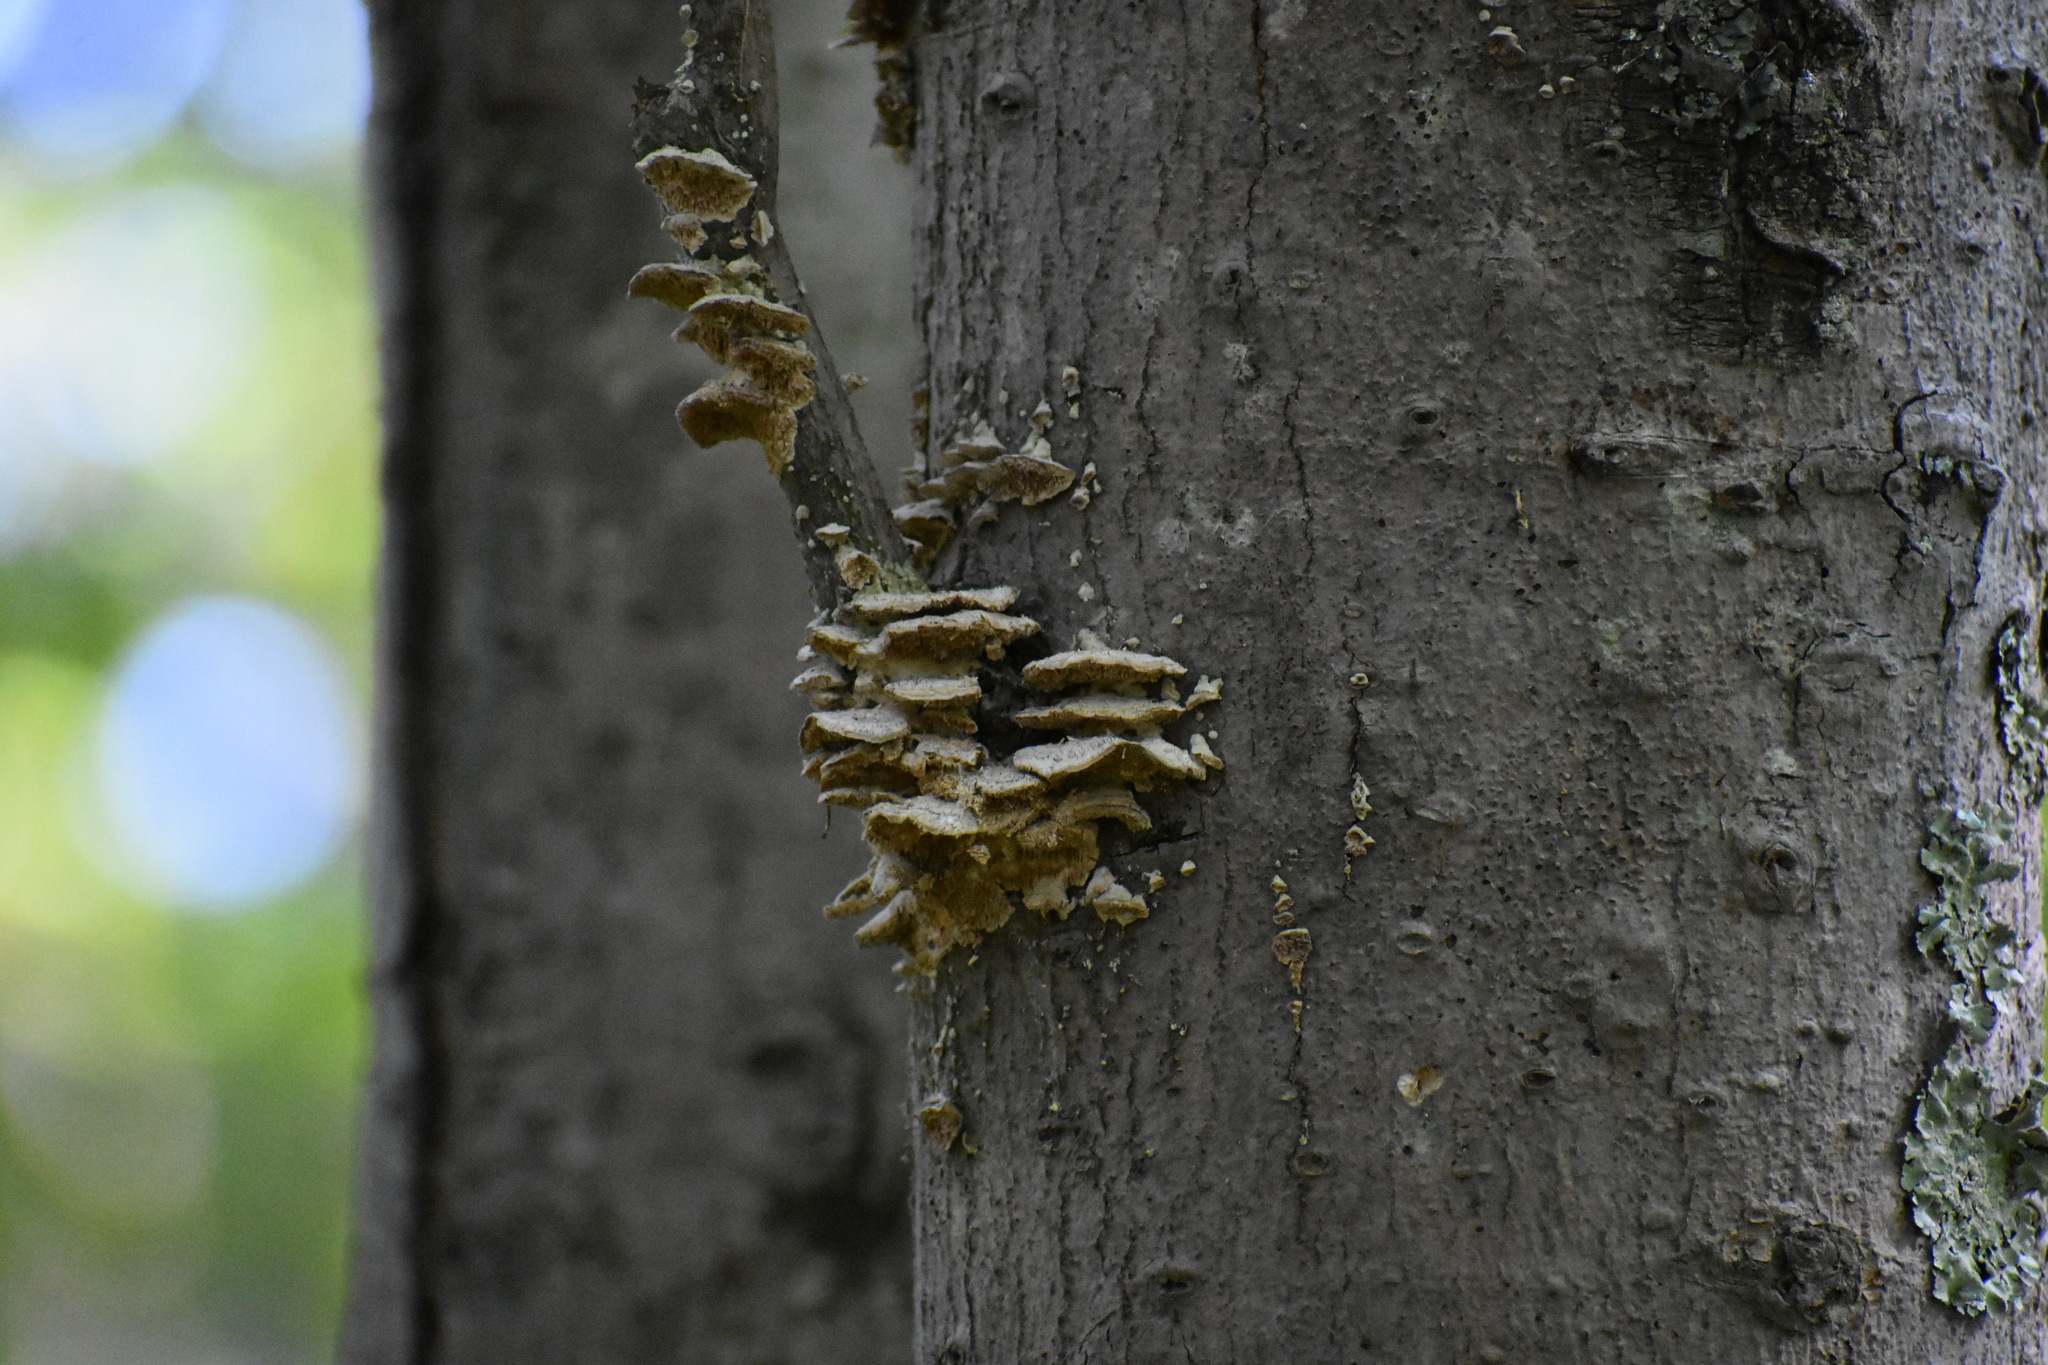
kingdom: Fungi
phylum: Basidiomycota
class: Agaricomycetes
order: Hymenochaetales
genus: Trichaptum
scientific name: Trichaptum biforme
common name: Violet-toothed polypore
